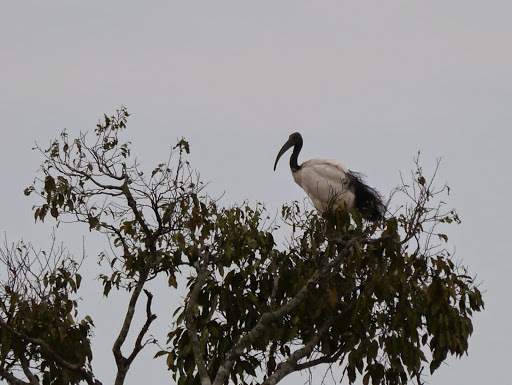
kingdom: Animalia
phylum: Chordata
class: Aves
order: Pelecaniformes
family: Threskiornithidae
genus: Threskiornis
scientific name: Threskiornis aethiopicus
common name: Sacred ibis
